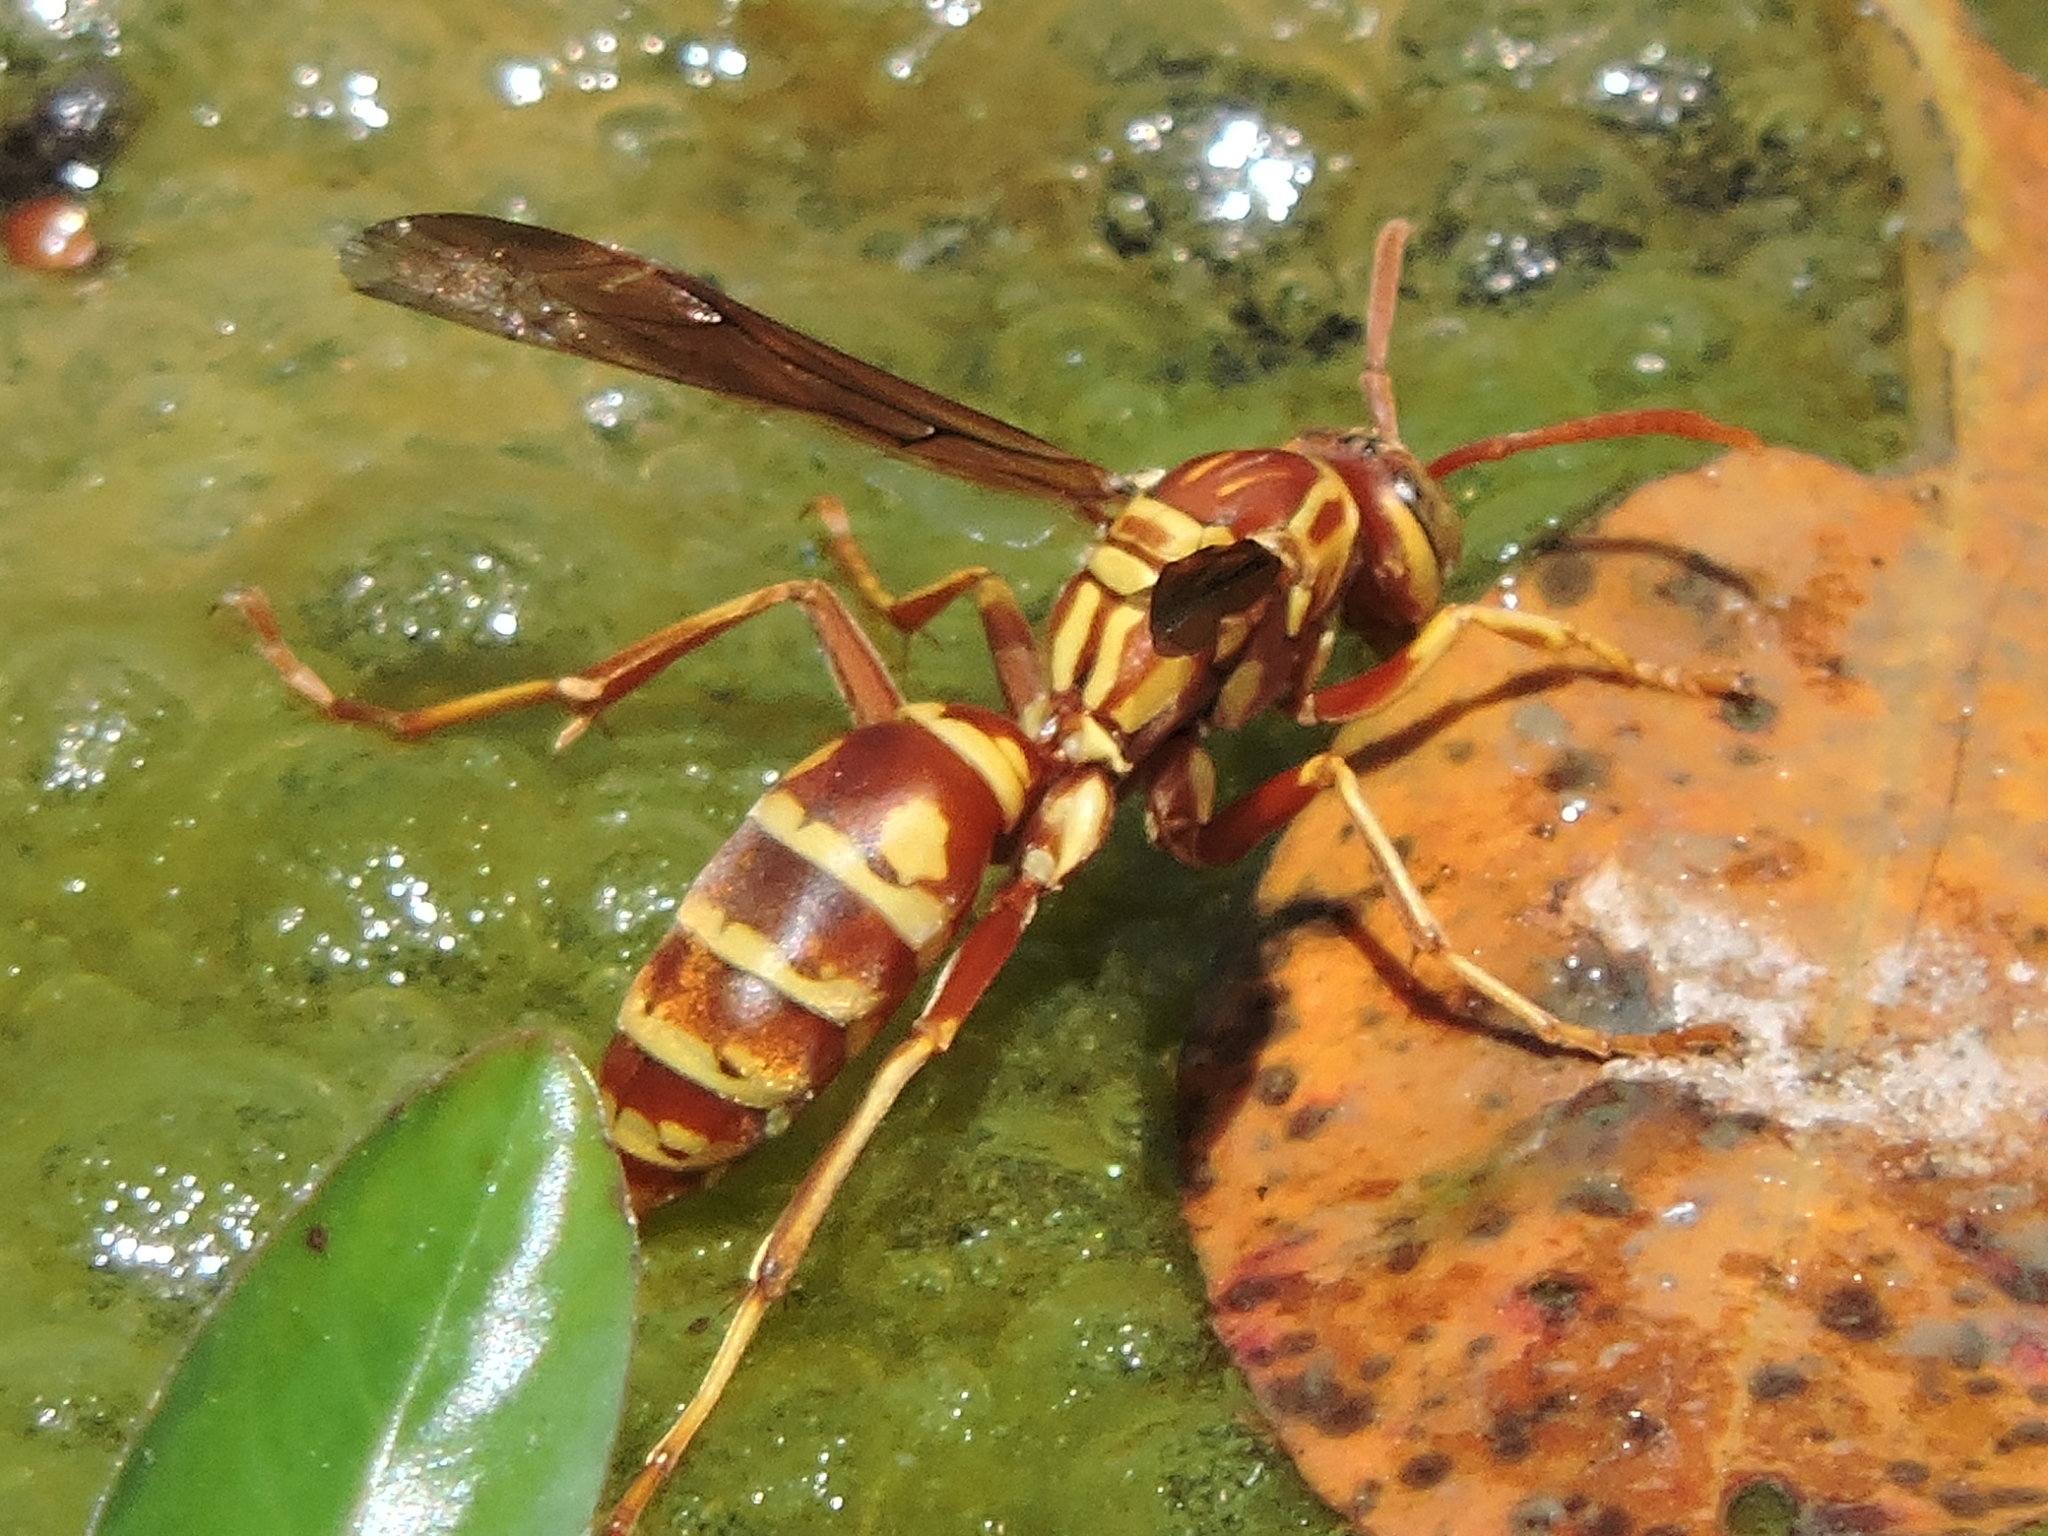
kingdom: Animalia
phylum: Arthropoda
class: Insecta
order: Hymenoptera
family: Eumenidae
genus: Polistes
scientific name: Polistes apachus
